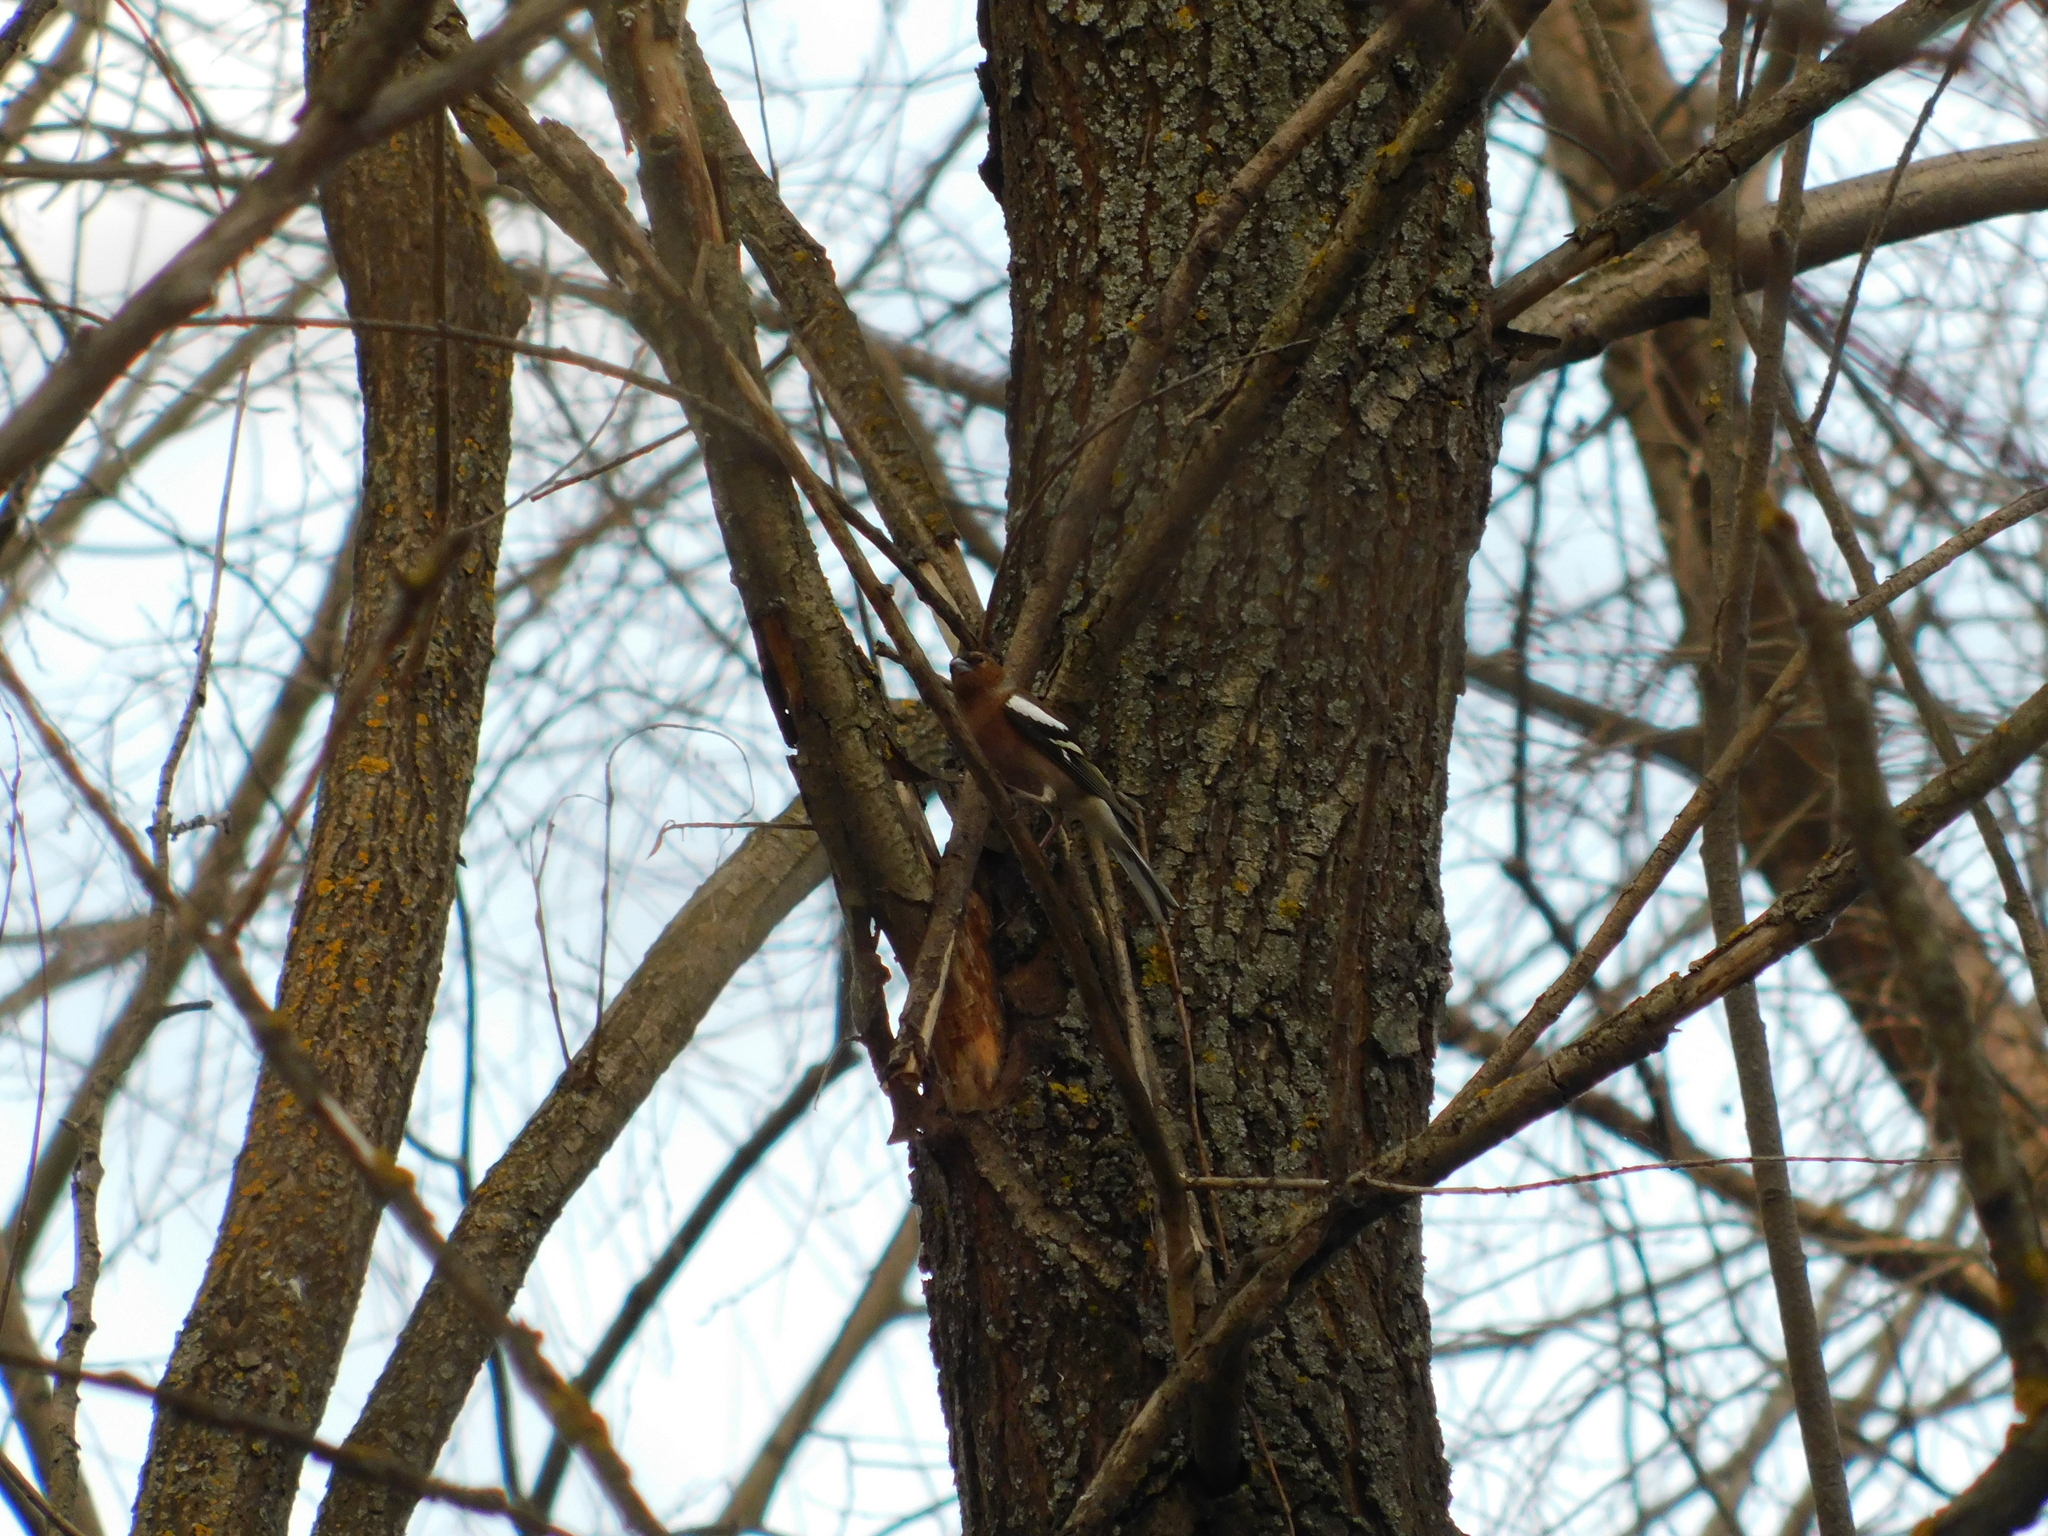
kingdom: Animalia
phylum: Chordata
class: Aves
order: Passeriformes
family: Fringillidae
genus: Fringilla
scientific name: Fringilla coelebs
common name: Common chaffinch
